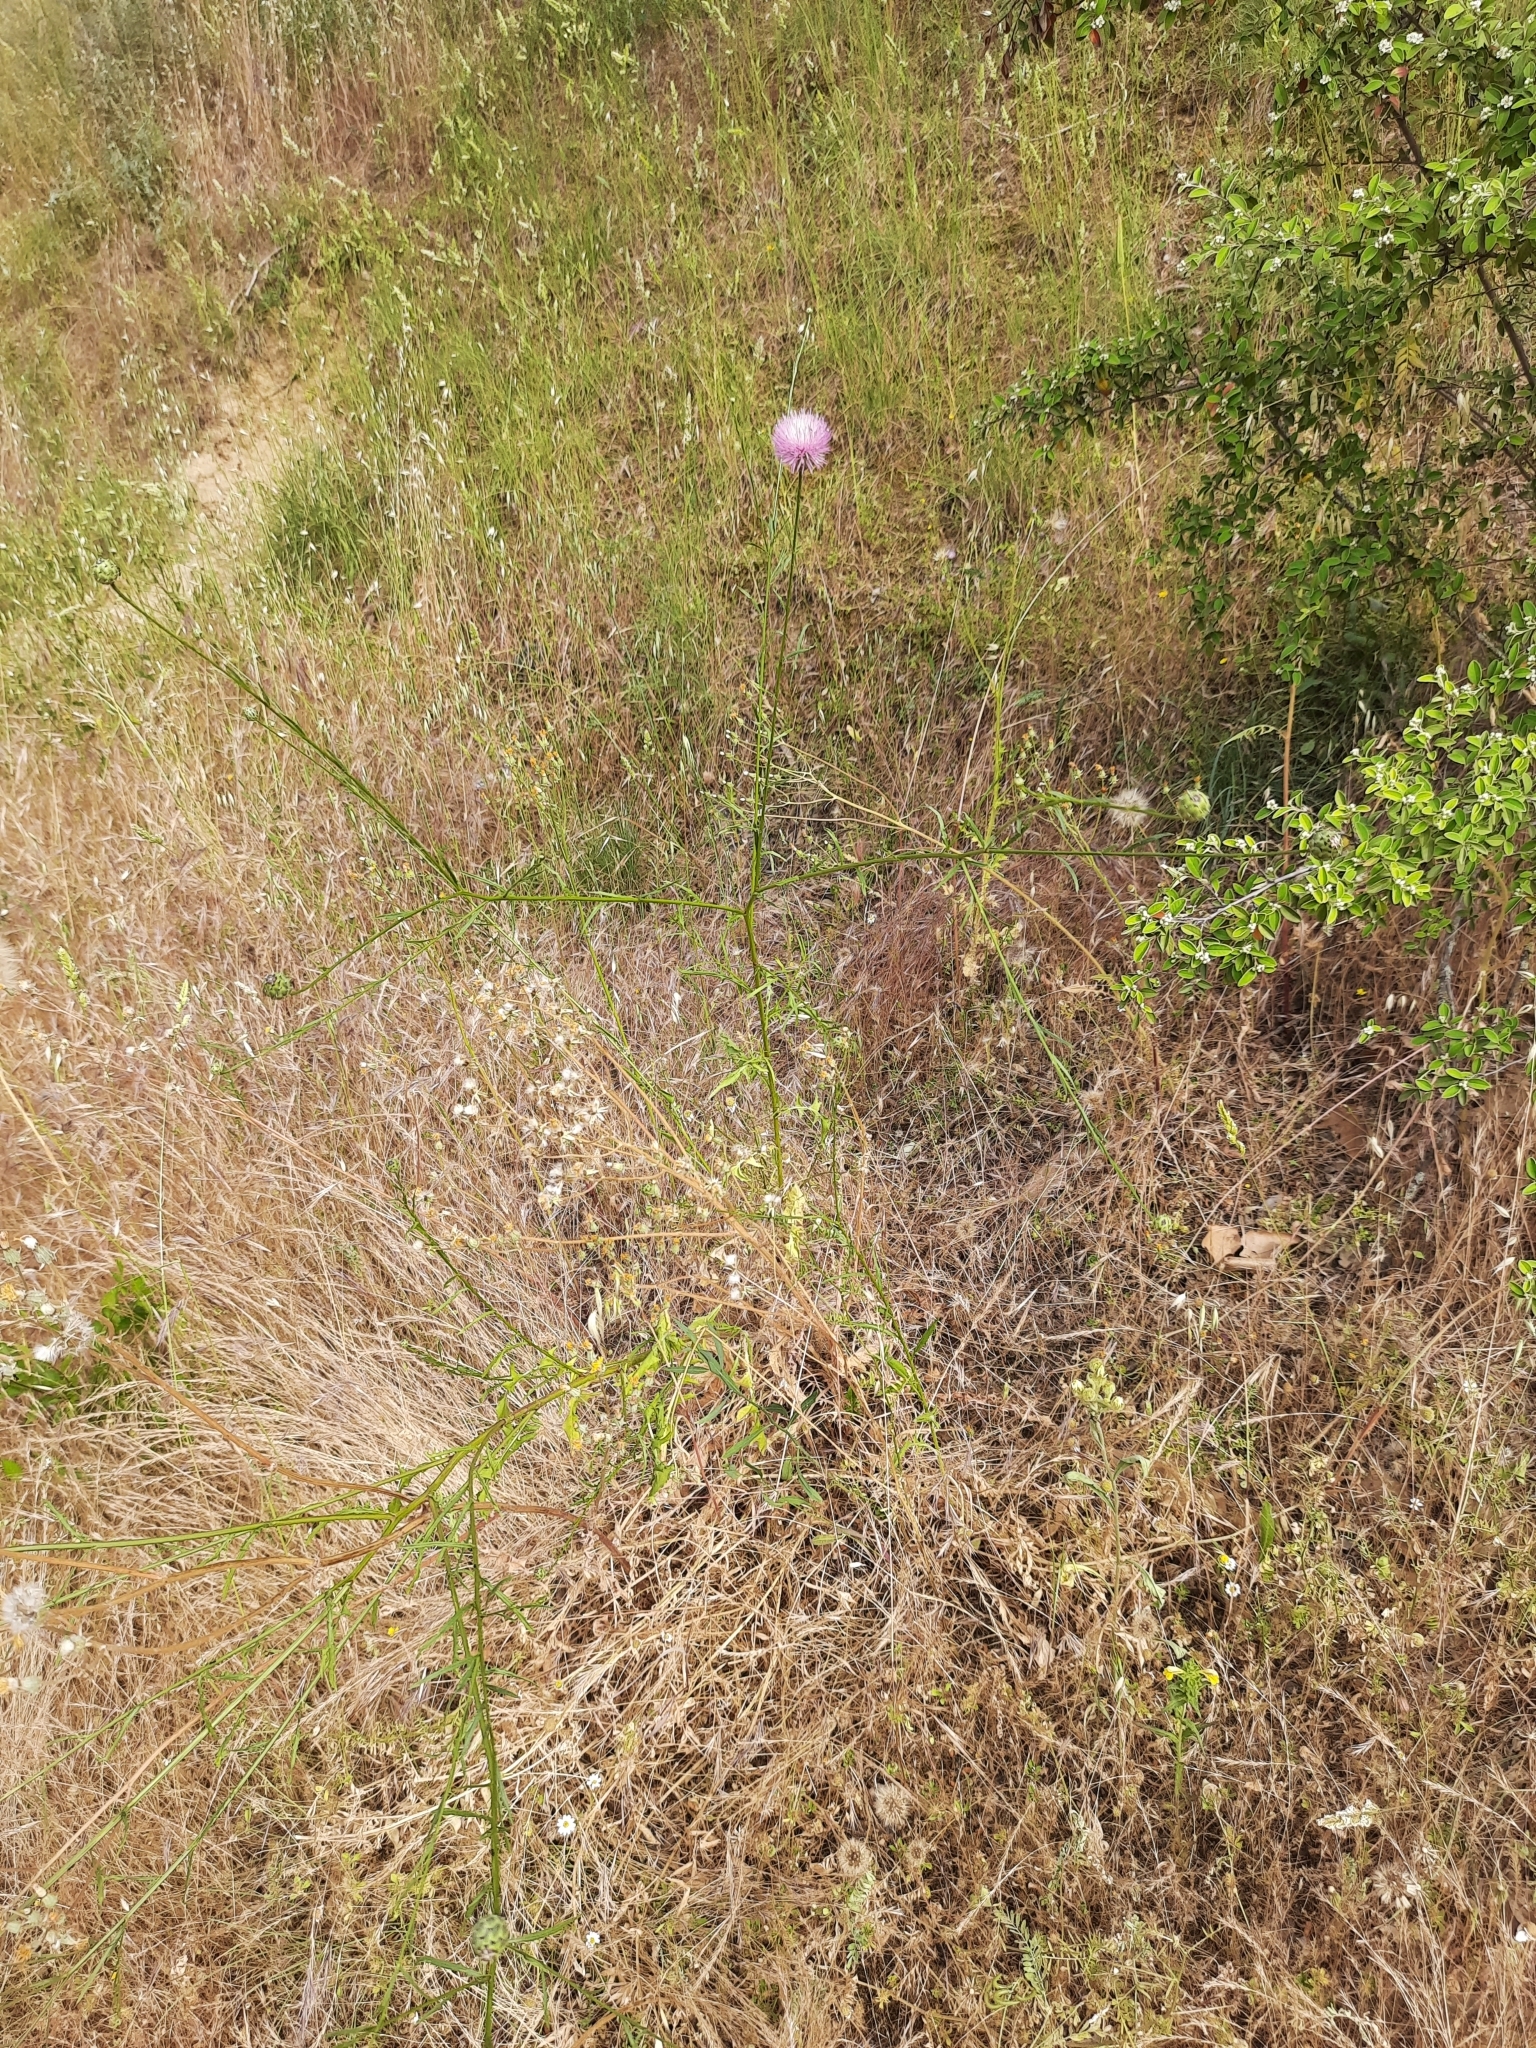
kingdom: Plantae
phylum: Tracheophyta
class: Magnoliopsida
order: Asterales
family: Asteraceae
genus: Mantisalca
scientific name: Mantisalca salmantica
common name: Dagger flower
